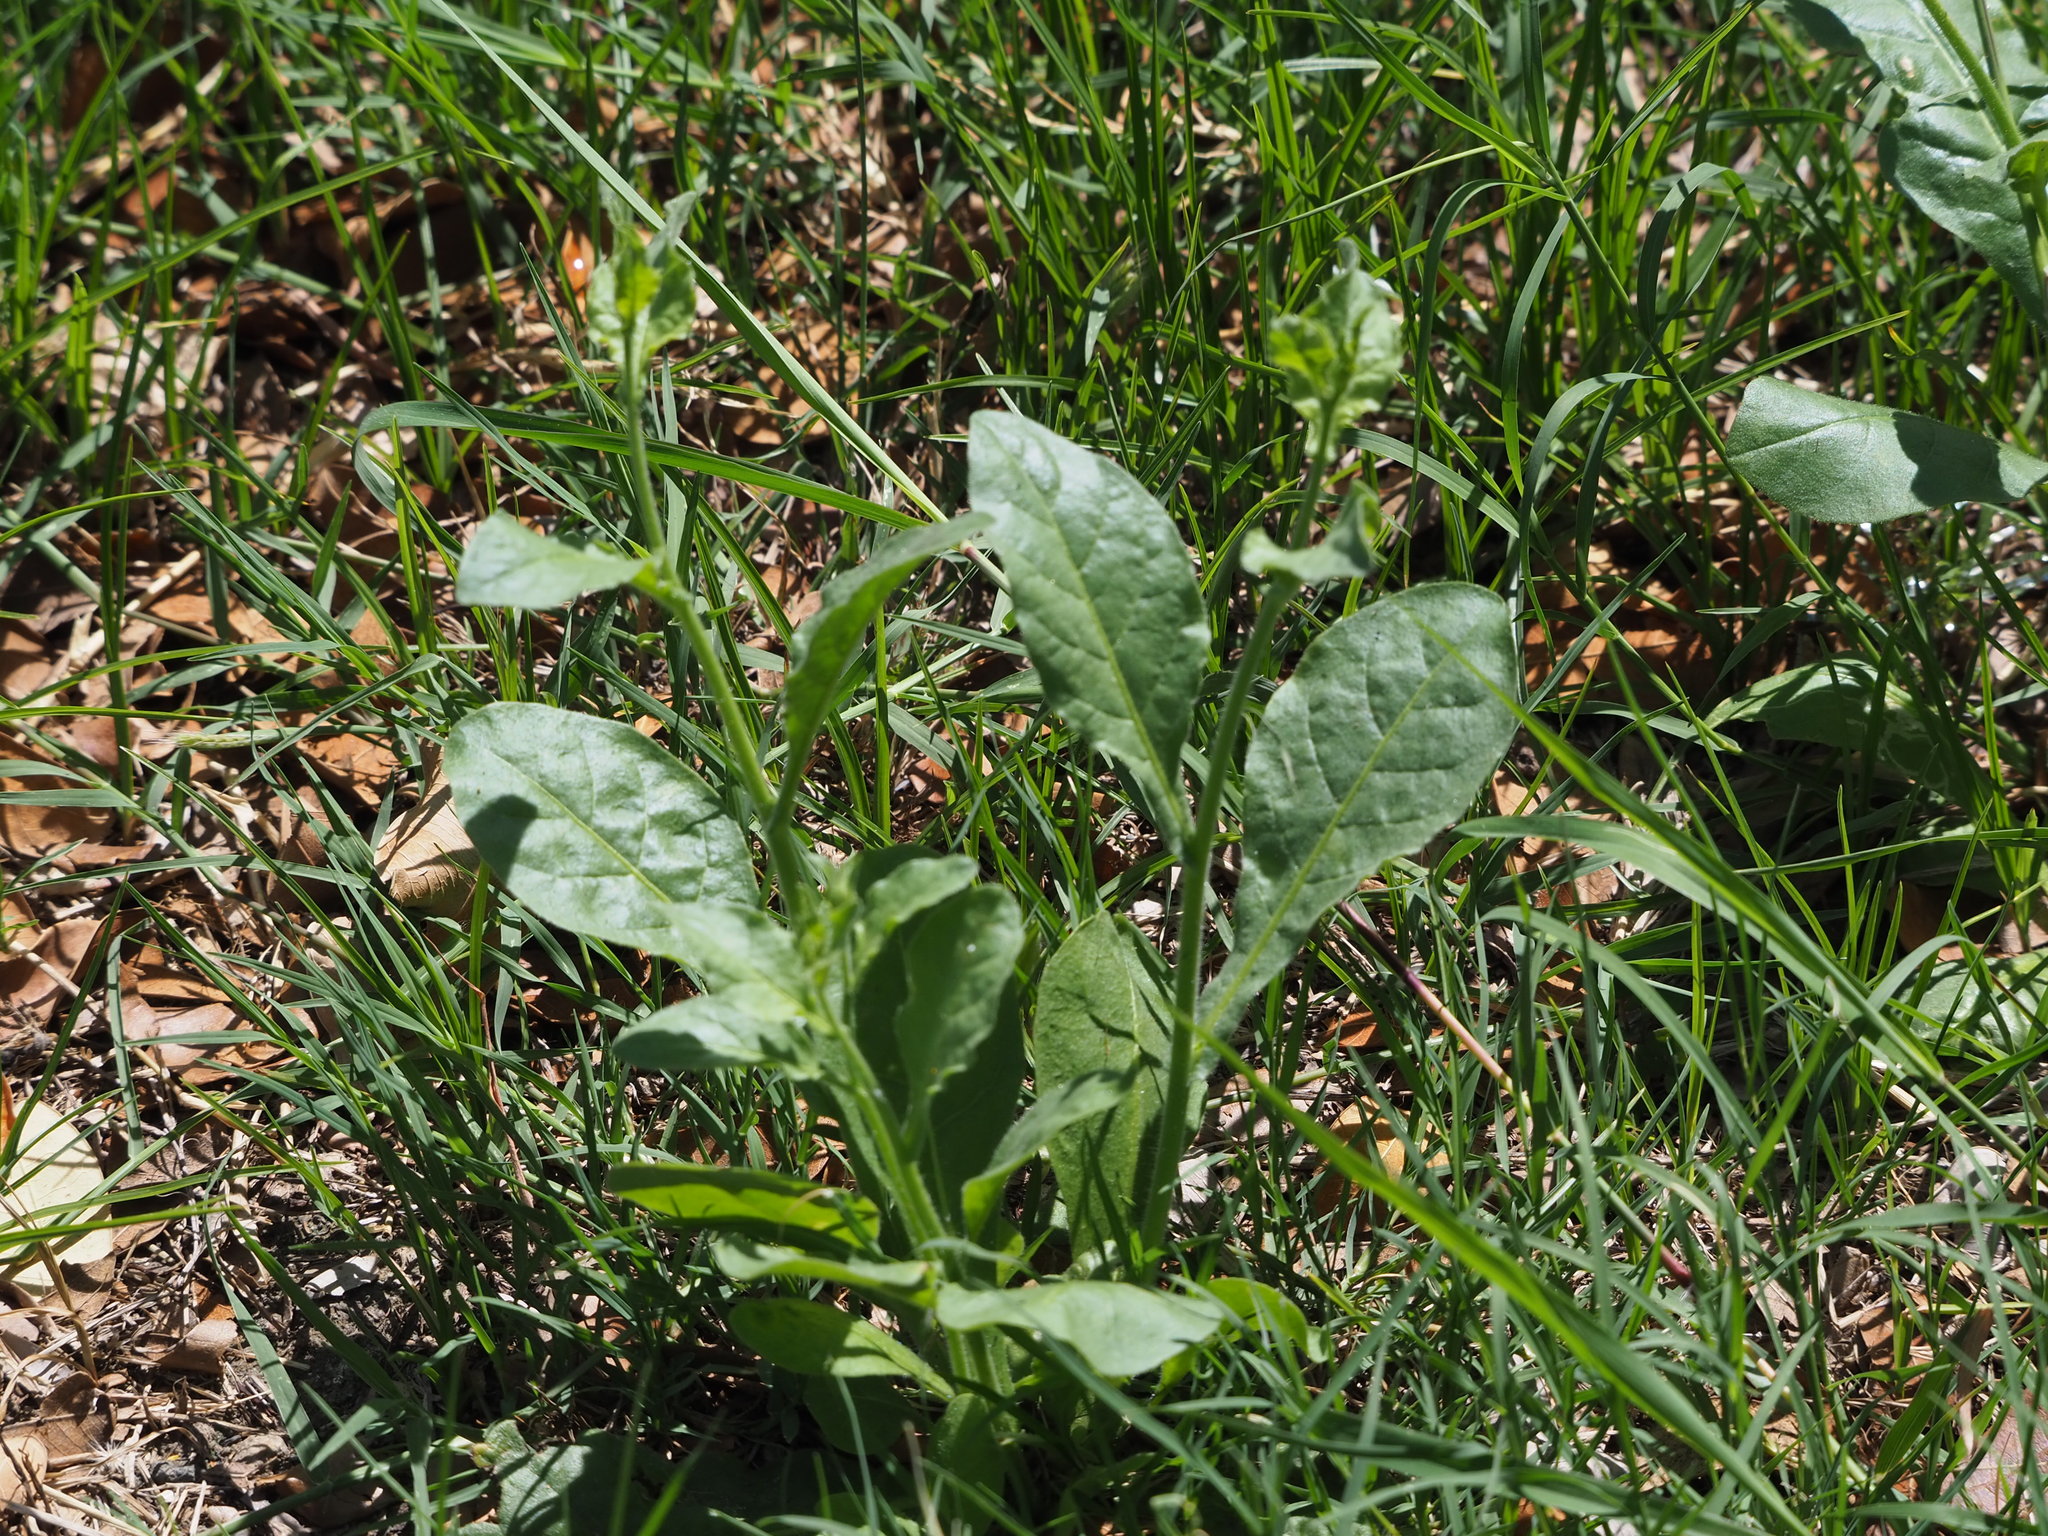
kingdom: Plantae
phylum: Tracheophyta
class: Magnoliopsida
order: Solanales
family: Solanaceae
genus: Nicotiana
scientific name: Nicotiana plumbaginifolia
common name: Tex-mex tobacco
